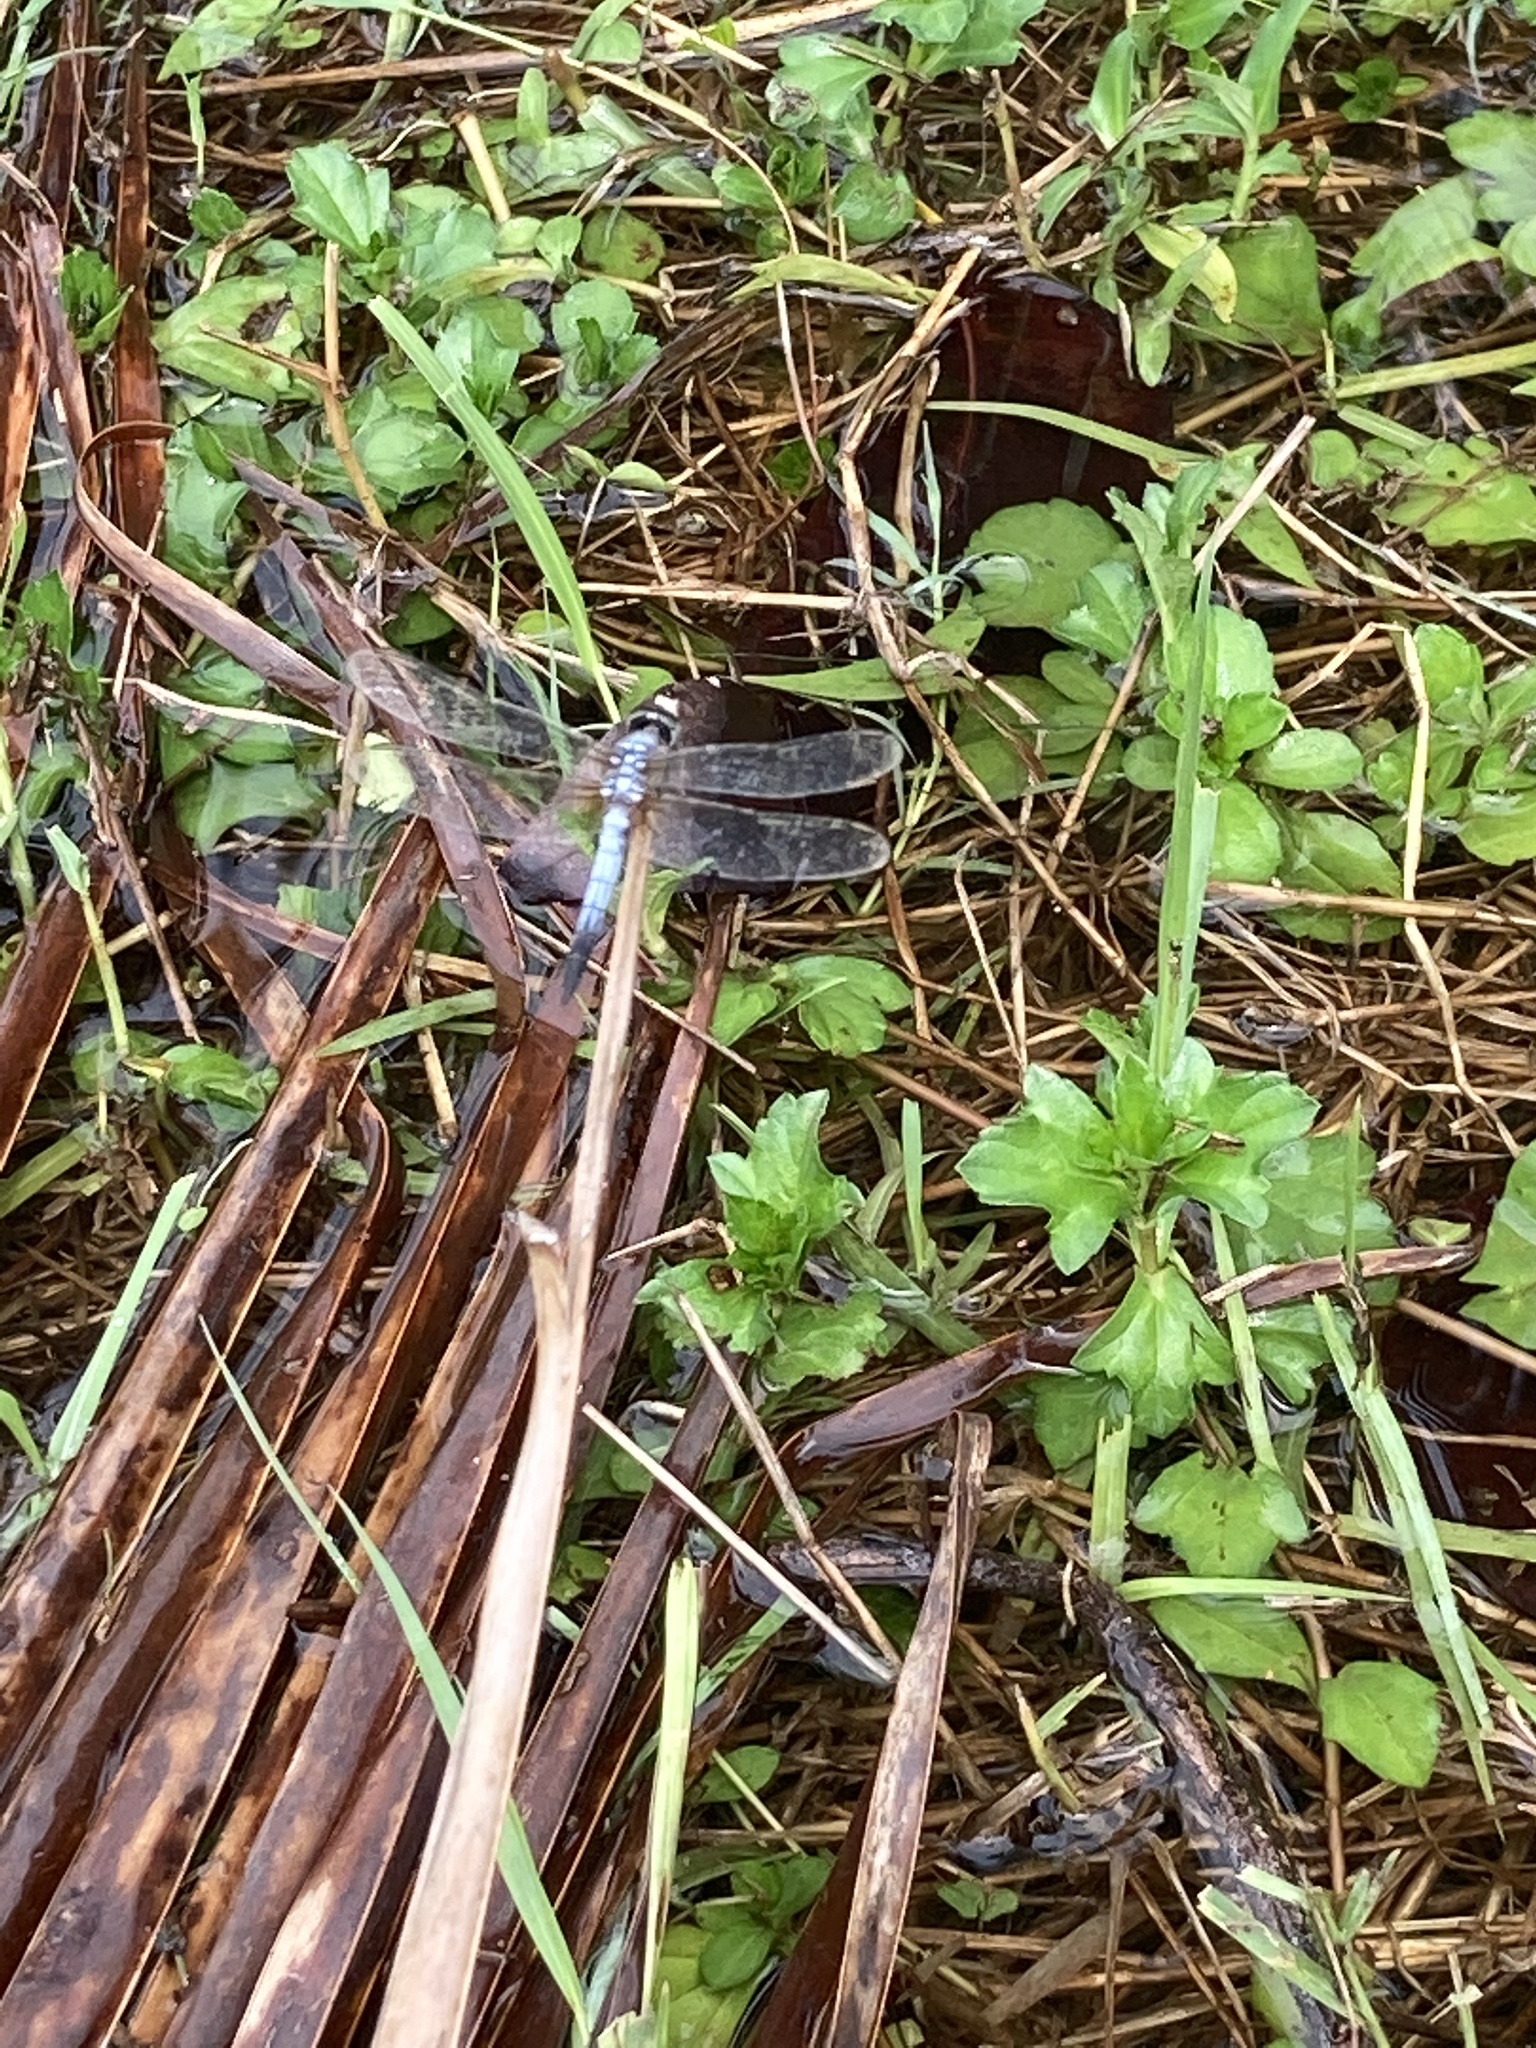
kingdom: Animalia
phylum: Arthropoda
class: Insecta
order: Odonata
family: Libellulidae
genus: Brachydiplax
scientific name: Brachydiplax chalybea
